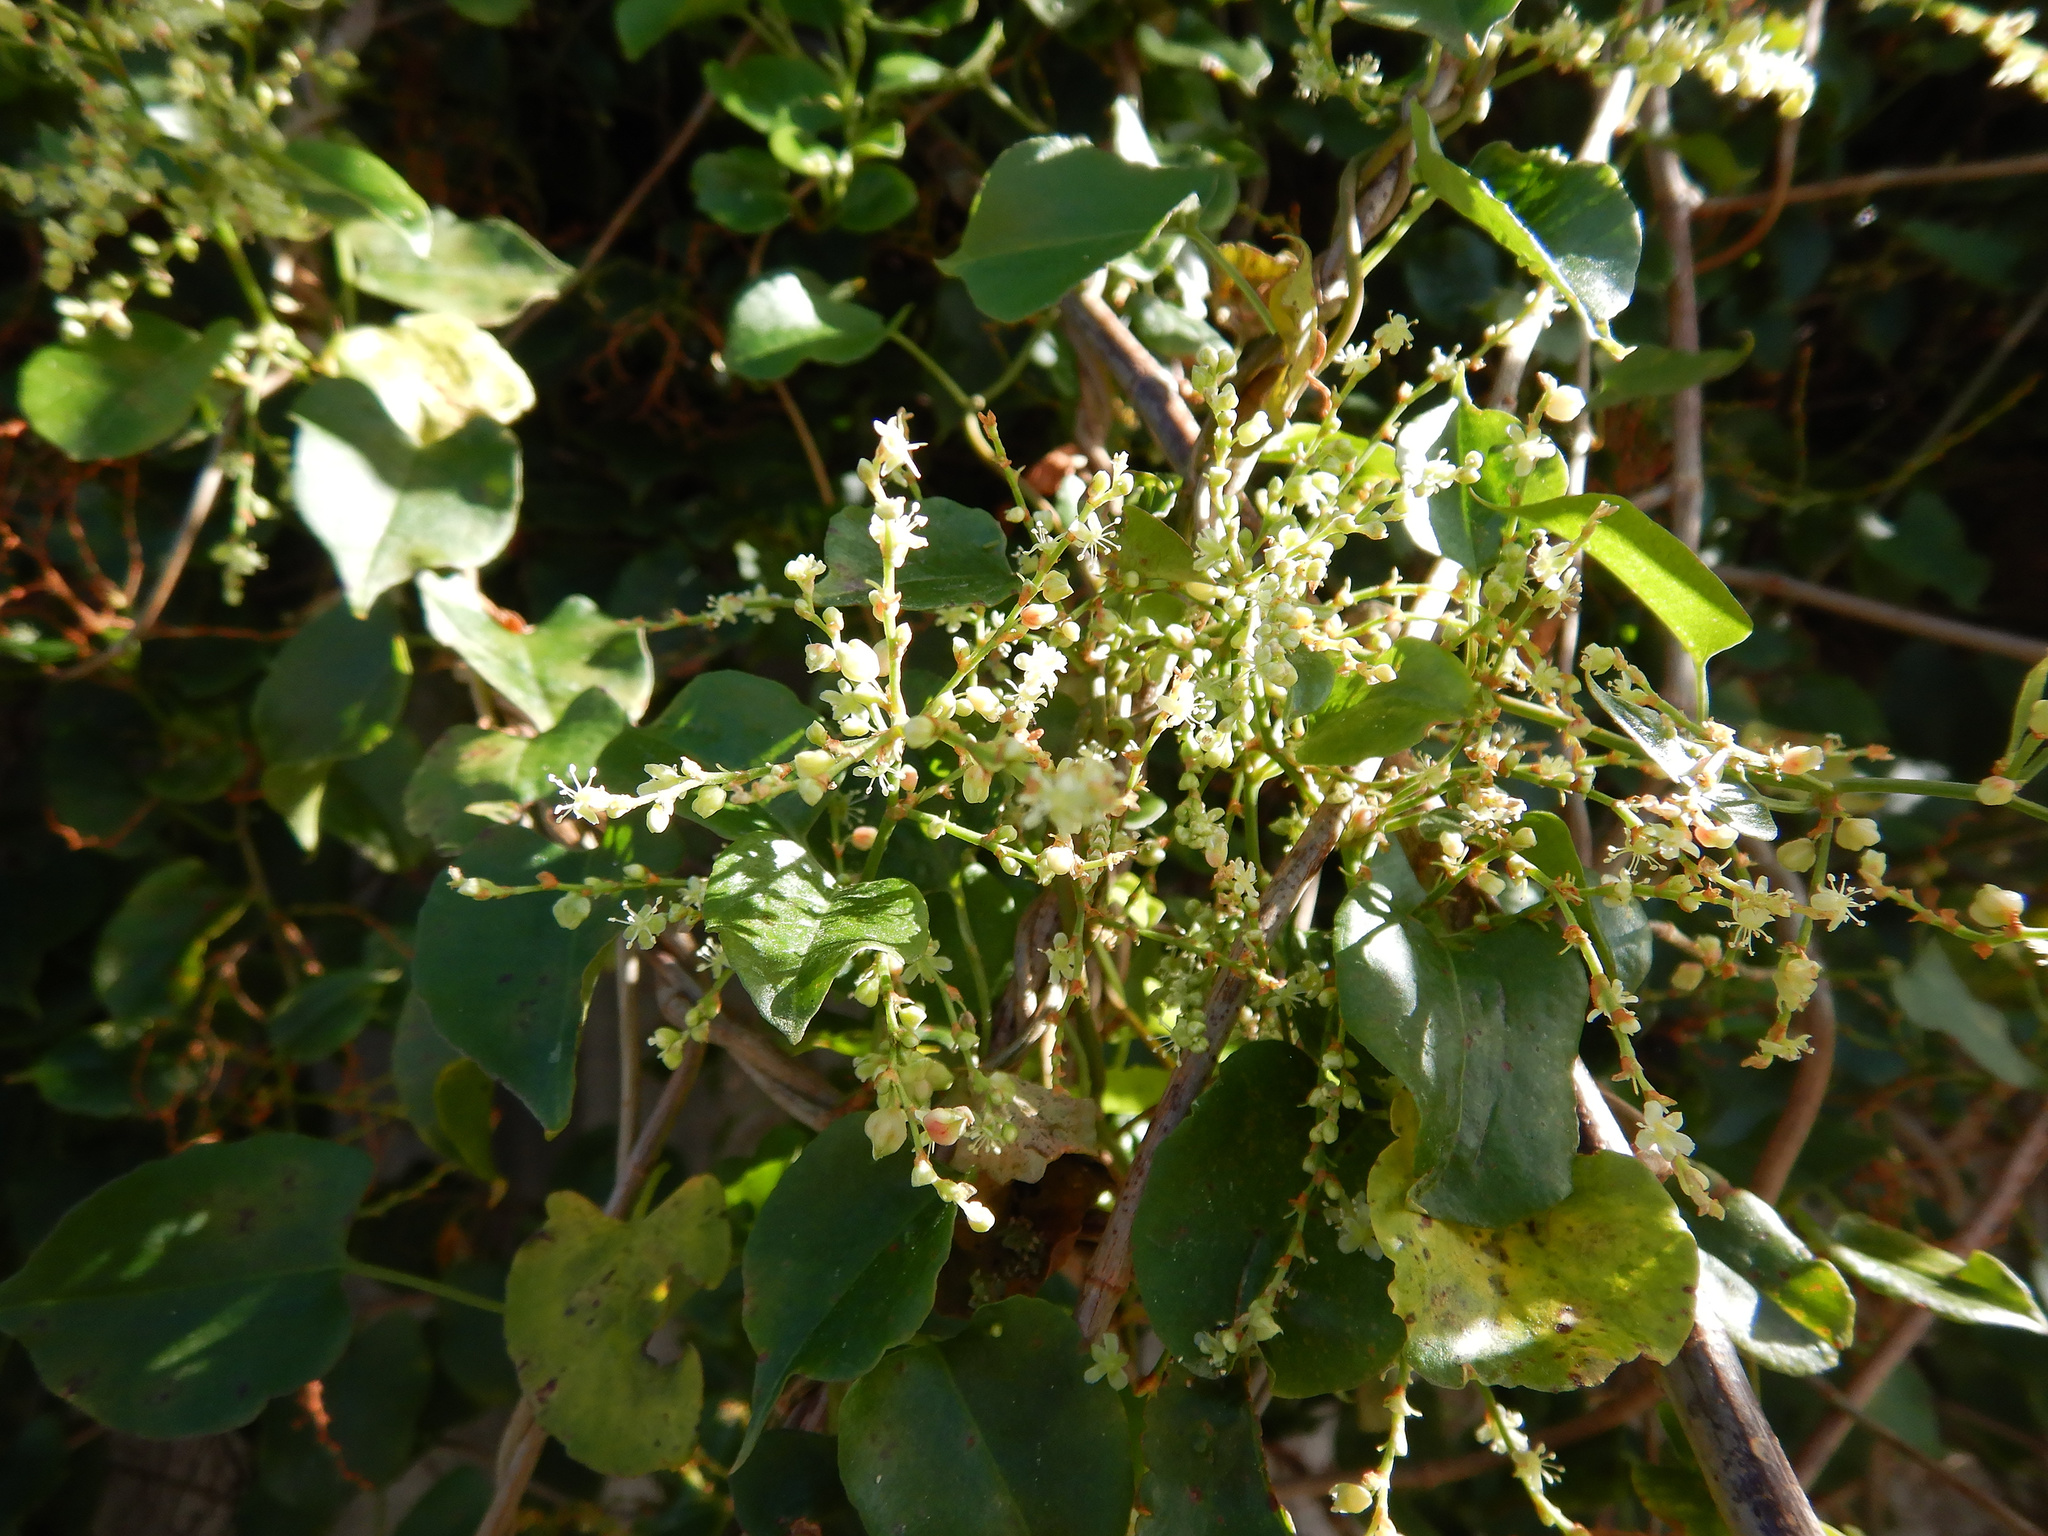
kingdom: Plantae
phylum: Tracheophyta
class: Magnoliopsida
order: Caryophyllales
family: Polygonaceae
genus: Muehlenbeckia
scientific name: Muehlenbeckia australis
